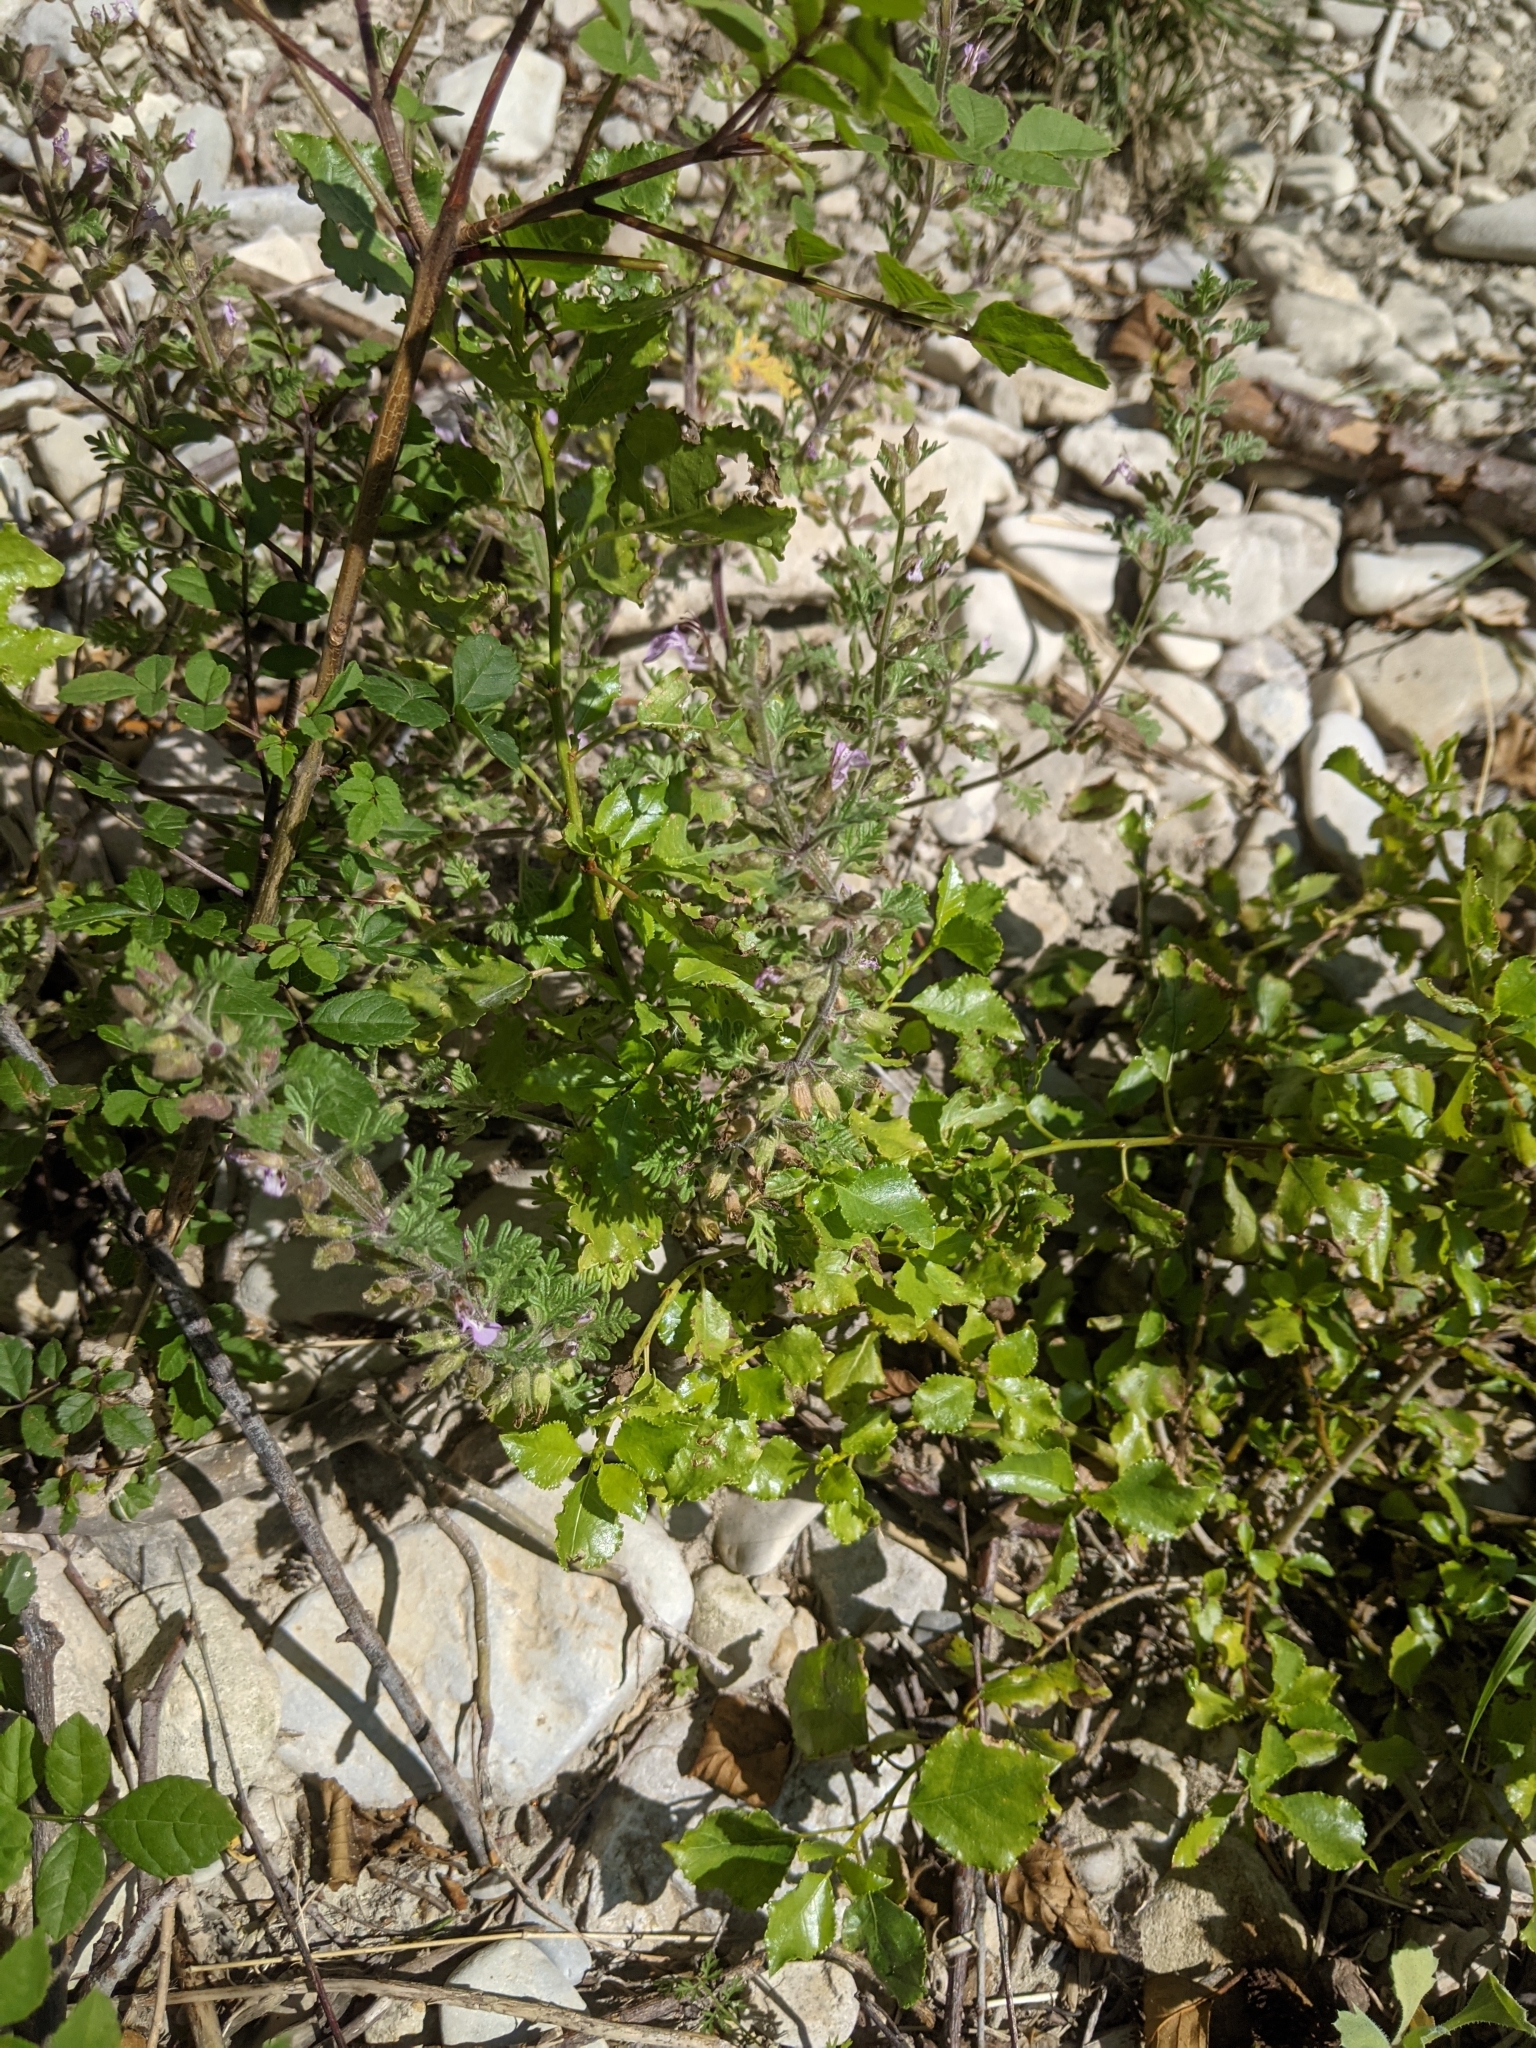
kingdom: Plantae
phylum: Tracheophyta
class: Magnoliopsida
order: Lamiales
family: Lamiaceae
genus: Teucrium
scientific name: Teucrium botrys
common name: Cut-leaved germander
